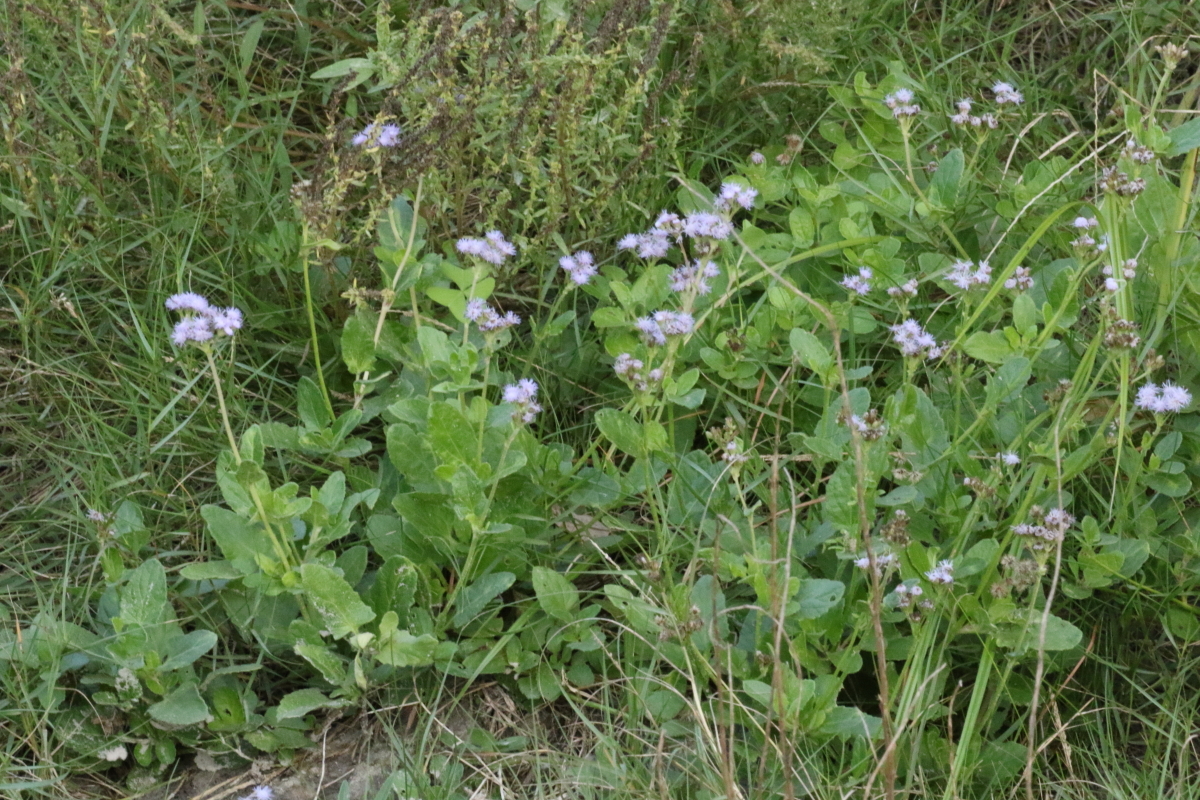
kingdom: Plantae
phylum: Tracheophyta
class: Magnoliopsida
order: Asterales
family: Asteraceae
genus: Conoclinium
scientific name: Conoclinium betonicifolium
